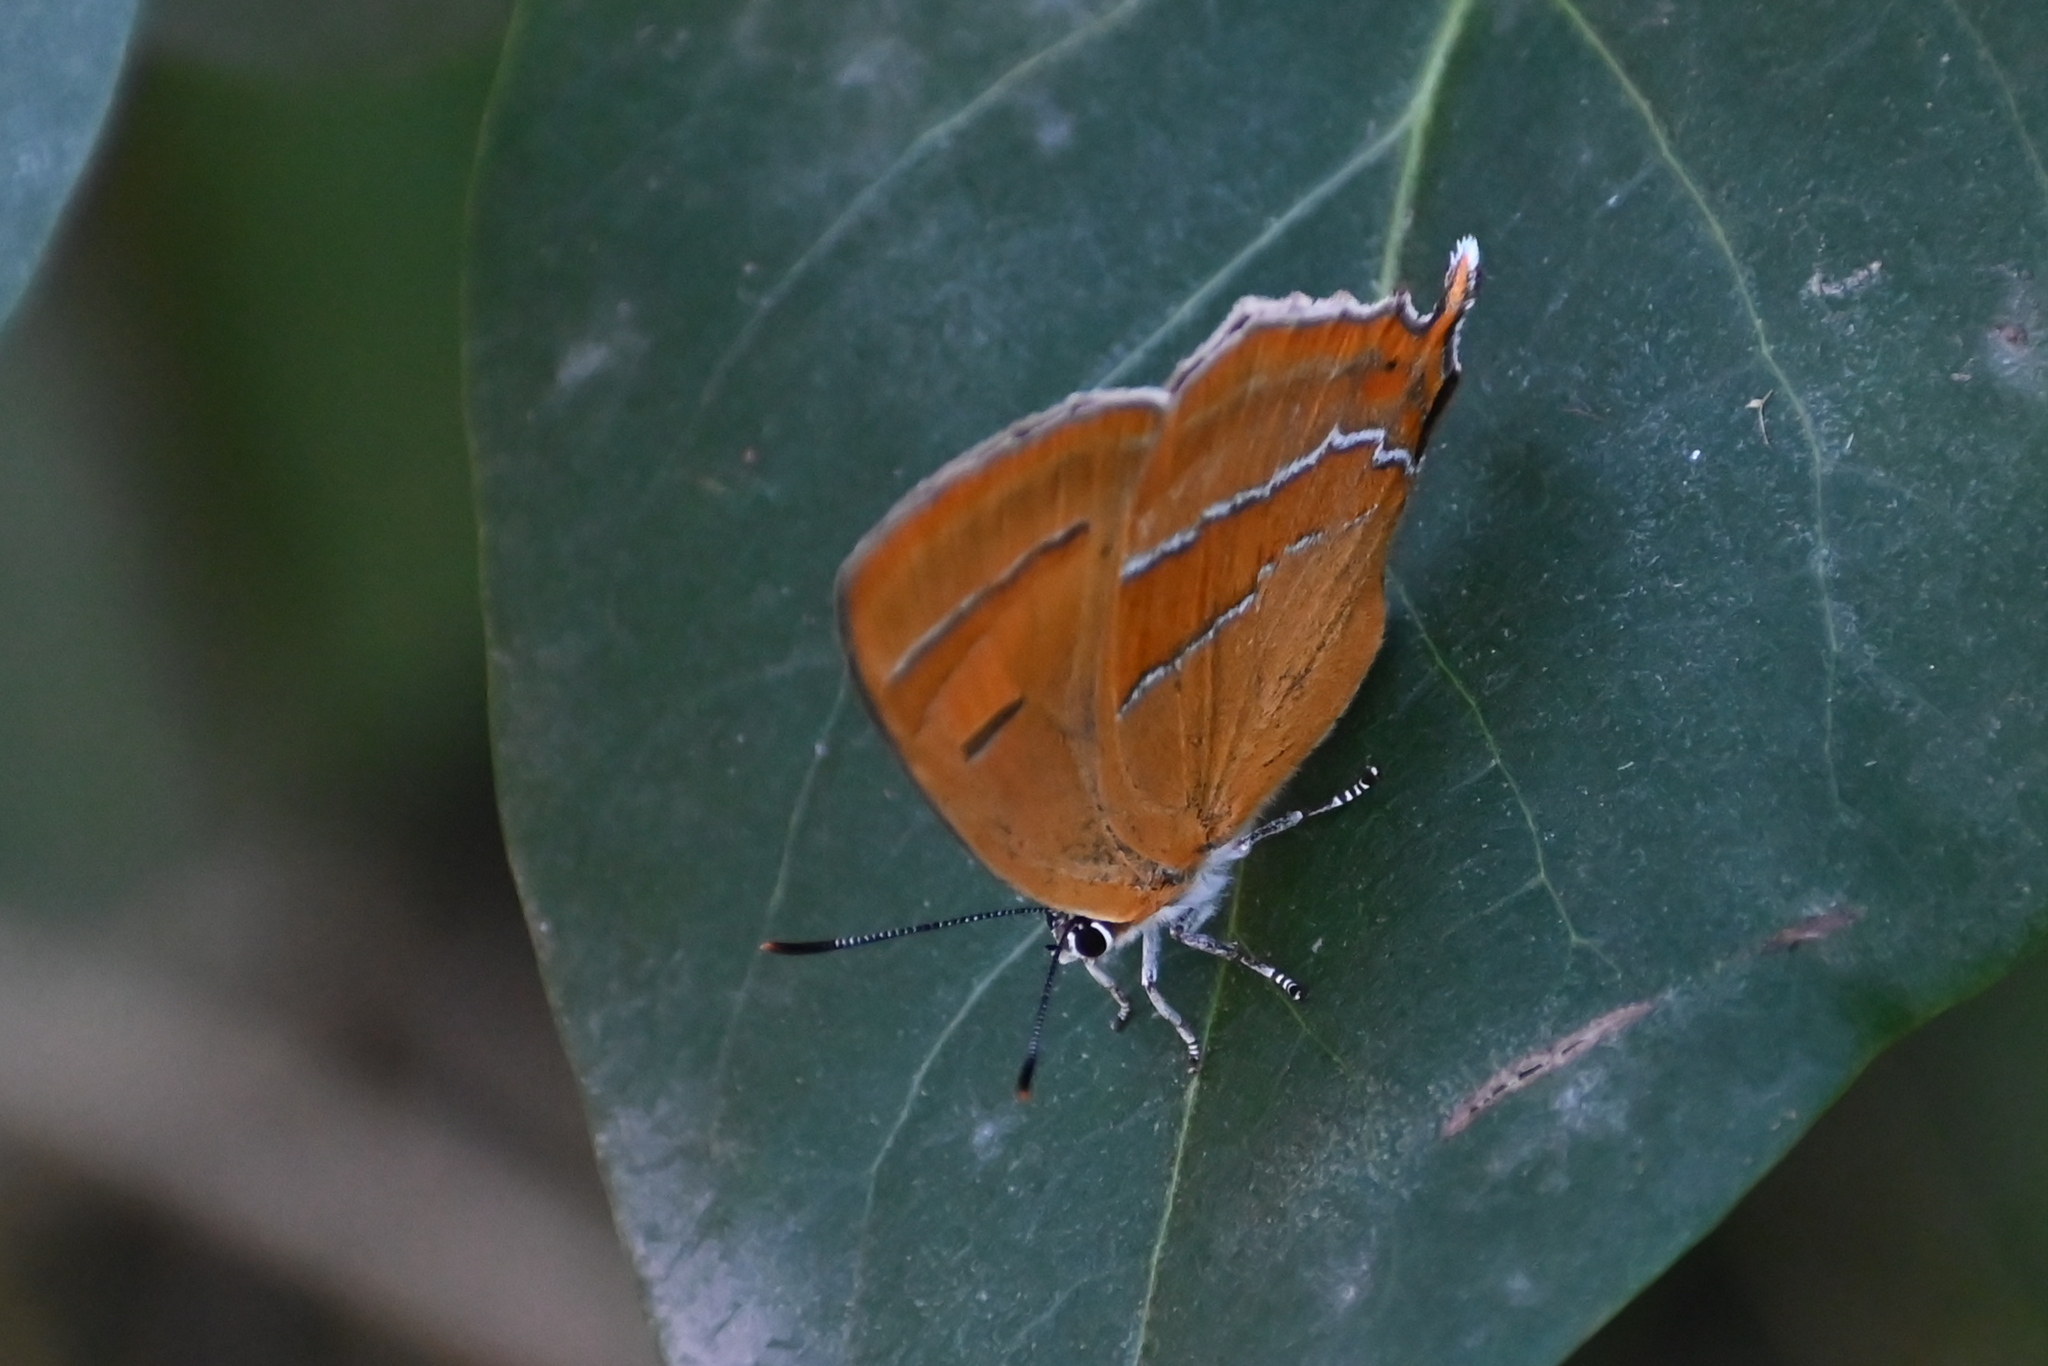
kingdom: Animalia
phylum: Arthropoda
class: Insecta
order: Lepidoptera
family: Lycaenidae
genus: Thecla
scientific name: Thecla betulae
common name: Brown hairstreak
